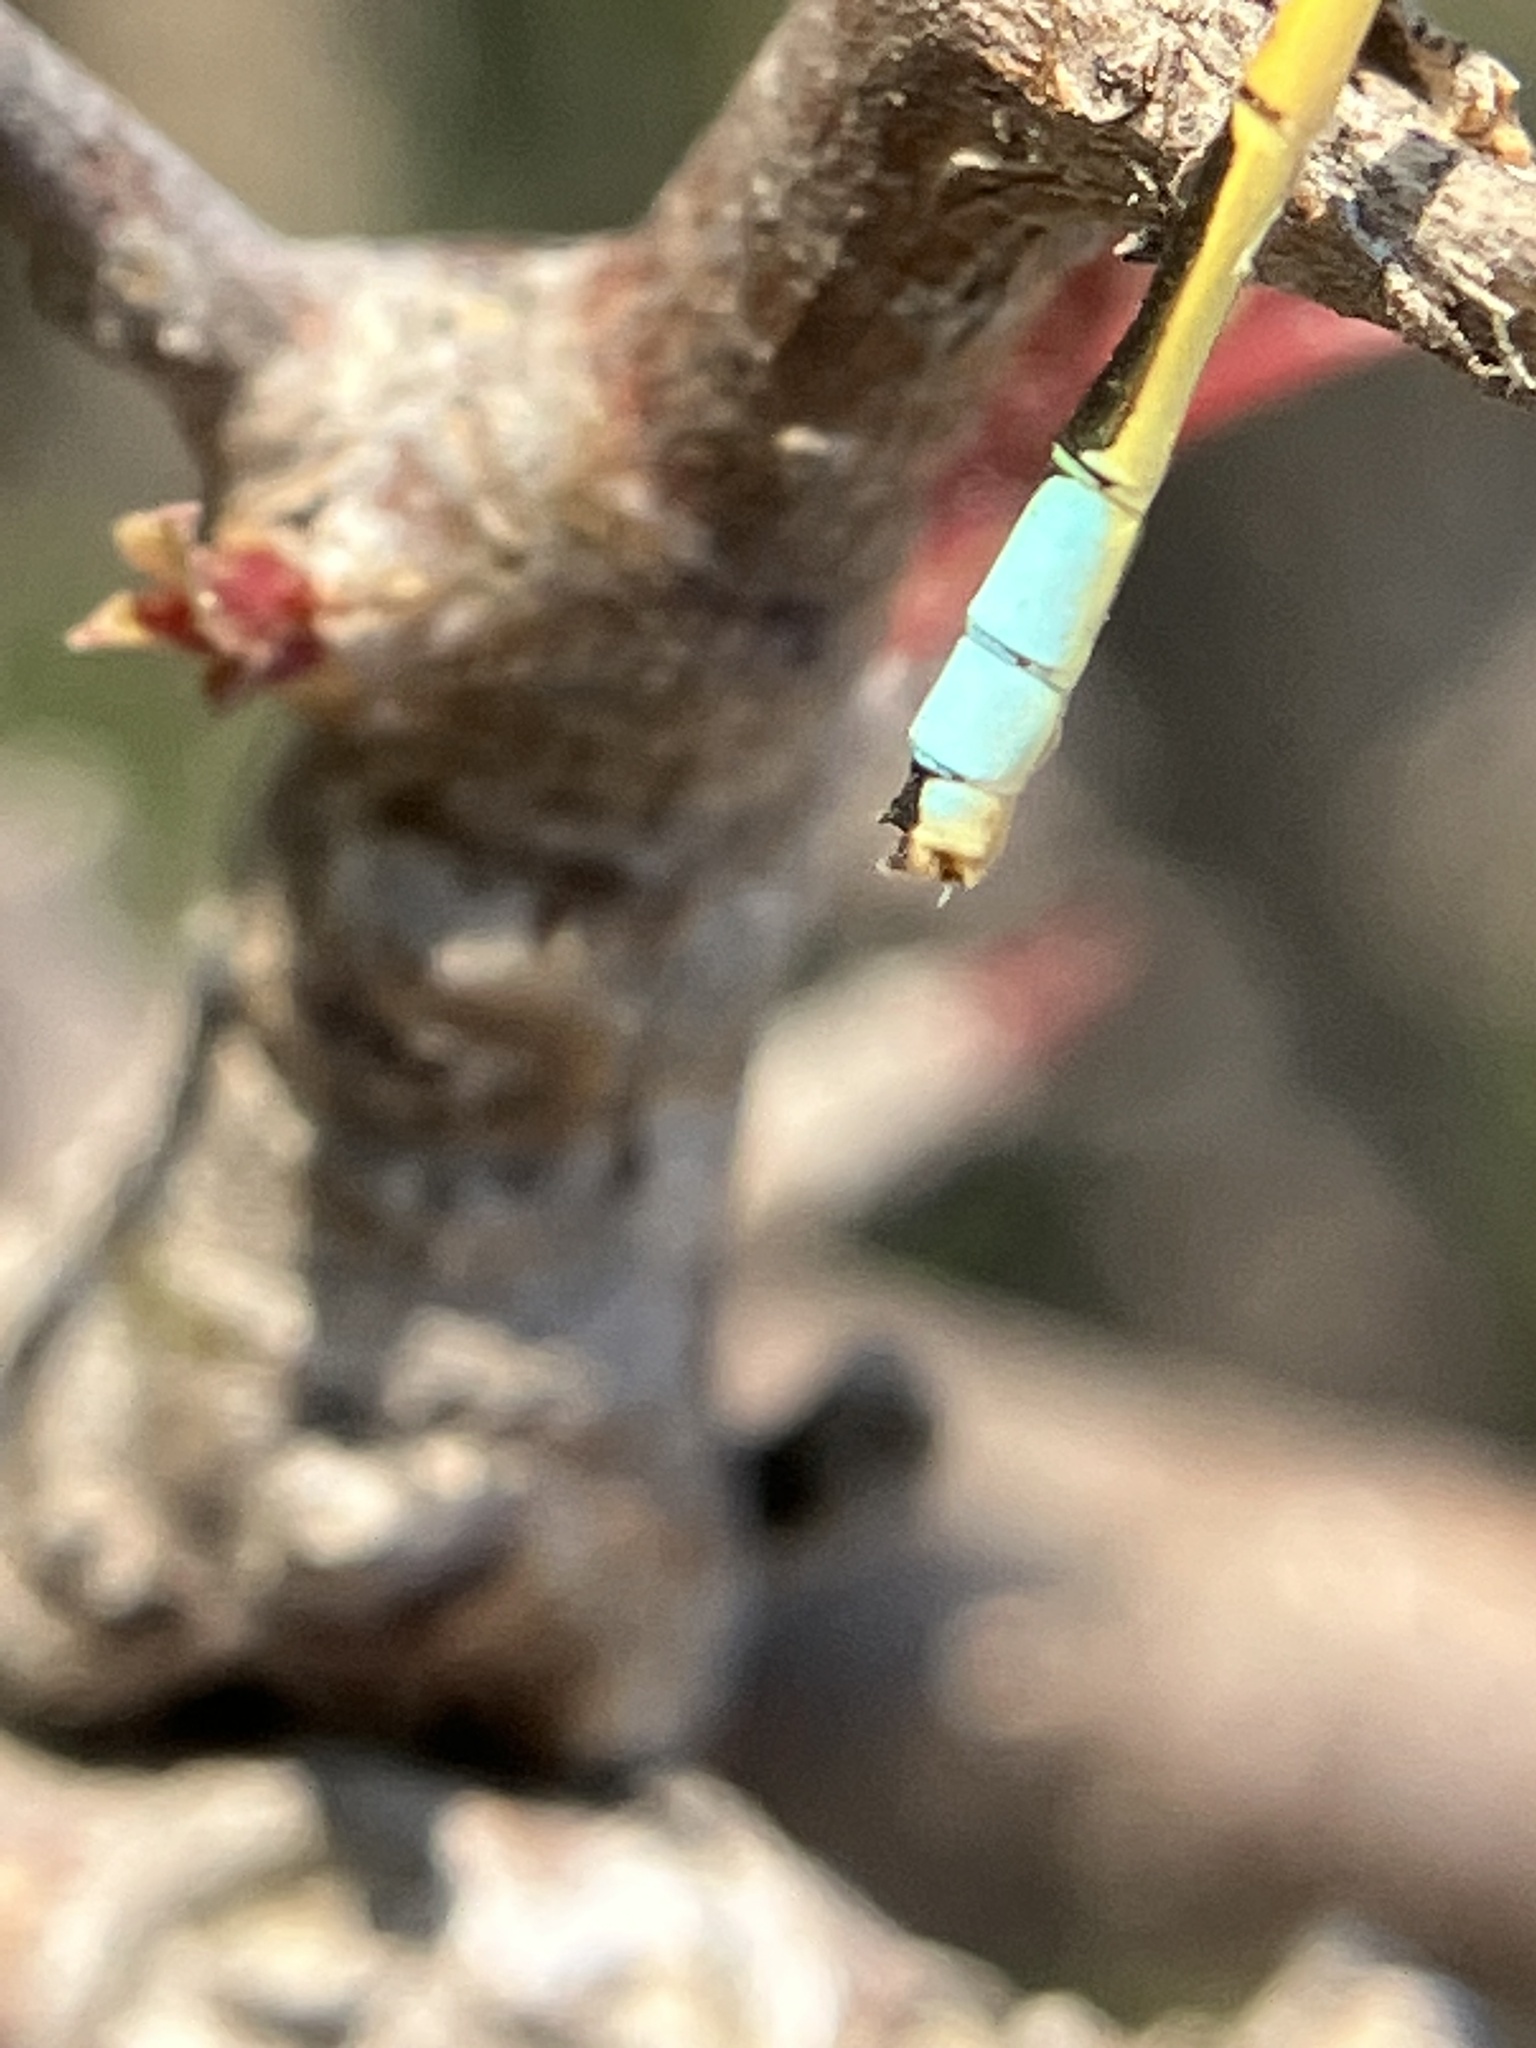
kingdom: Animalia
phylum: Arthropoda
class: Insecta
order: Odonata
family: Coenagrionidae
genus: Ischnura
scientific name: Ischnura rubilio
